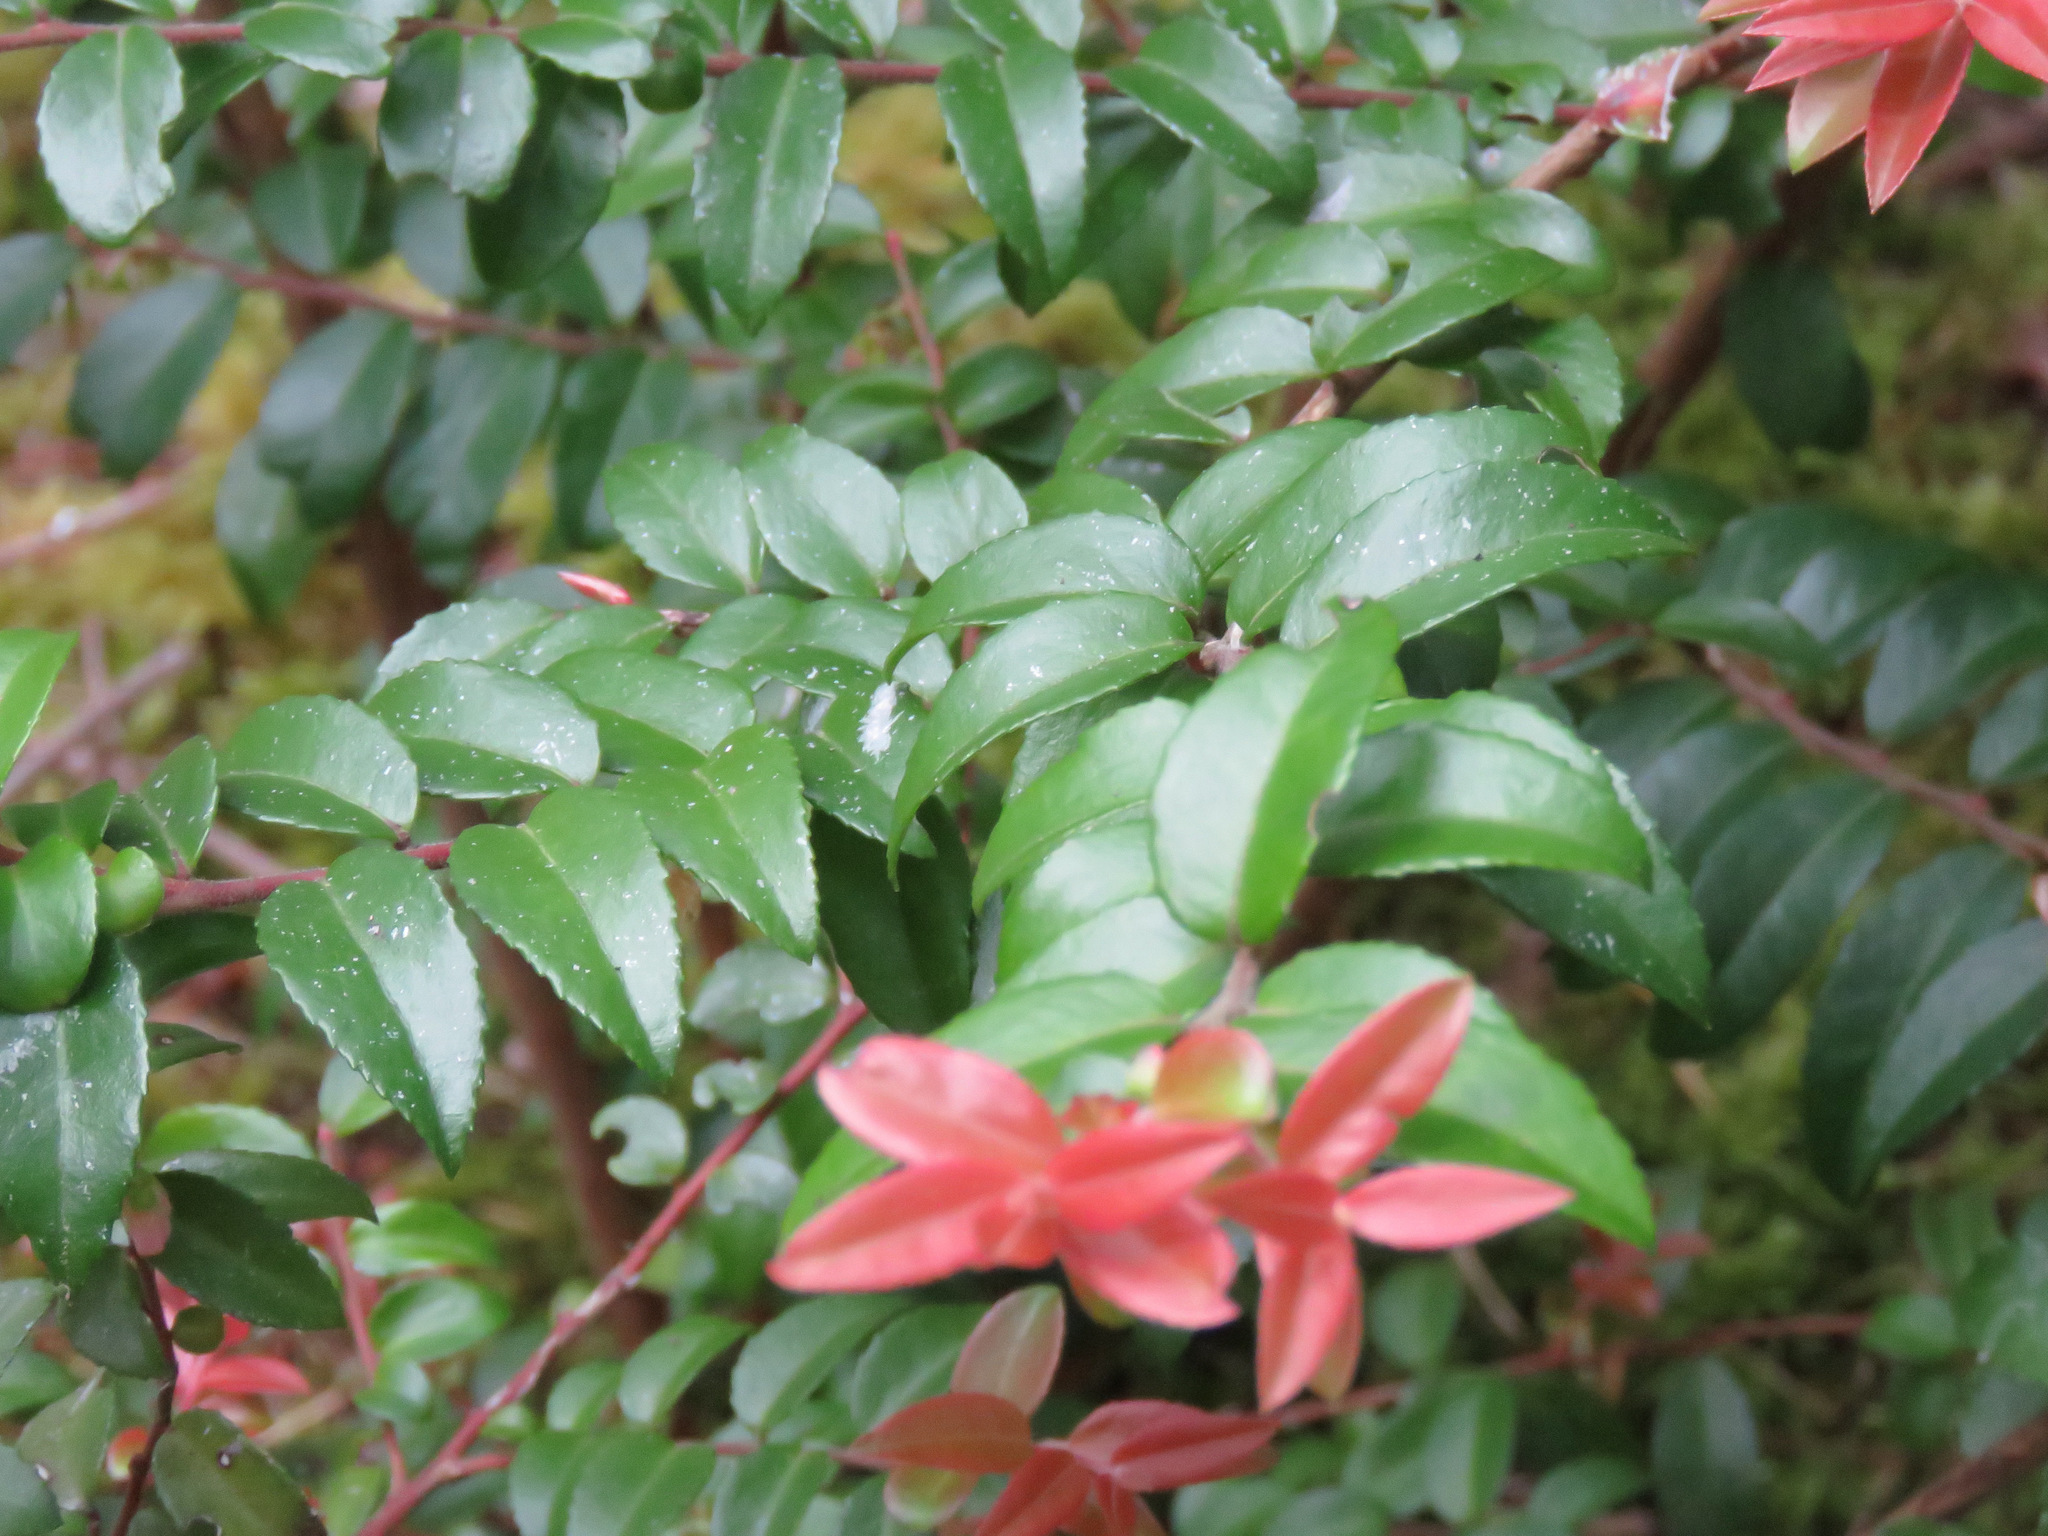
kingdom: Plantae
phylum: Tracheophyta
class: Magnoliopsida
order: Ericales
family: Ericaceae
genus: Vaccinium
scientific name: Vaccinium ovatum
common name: California-huckleberry
